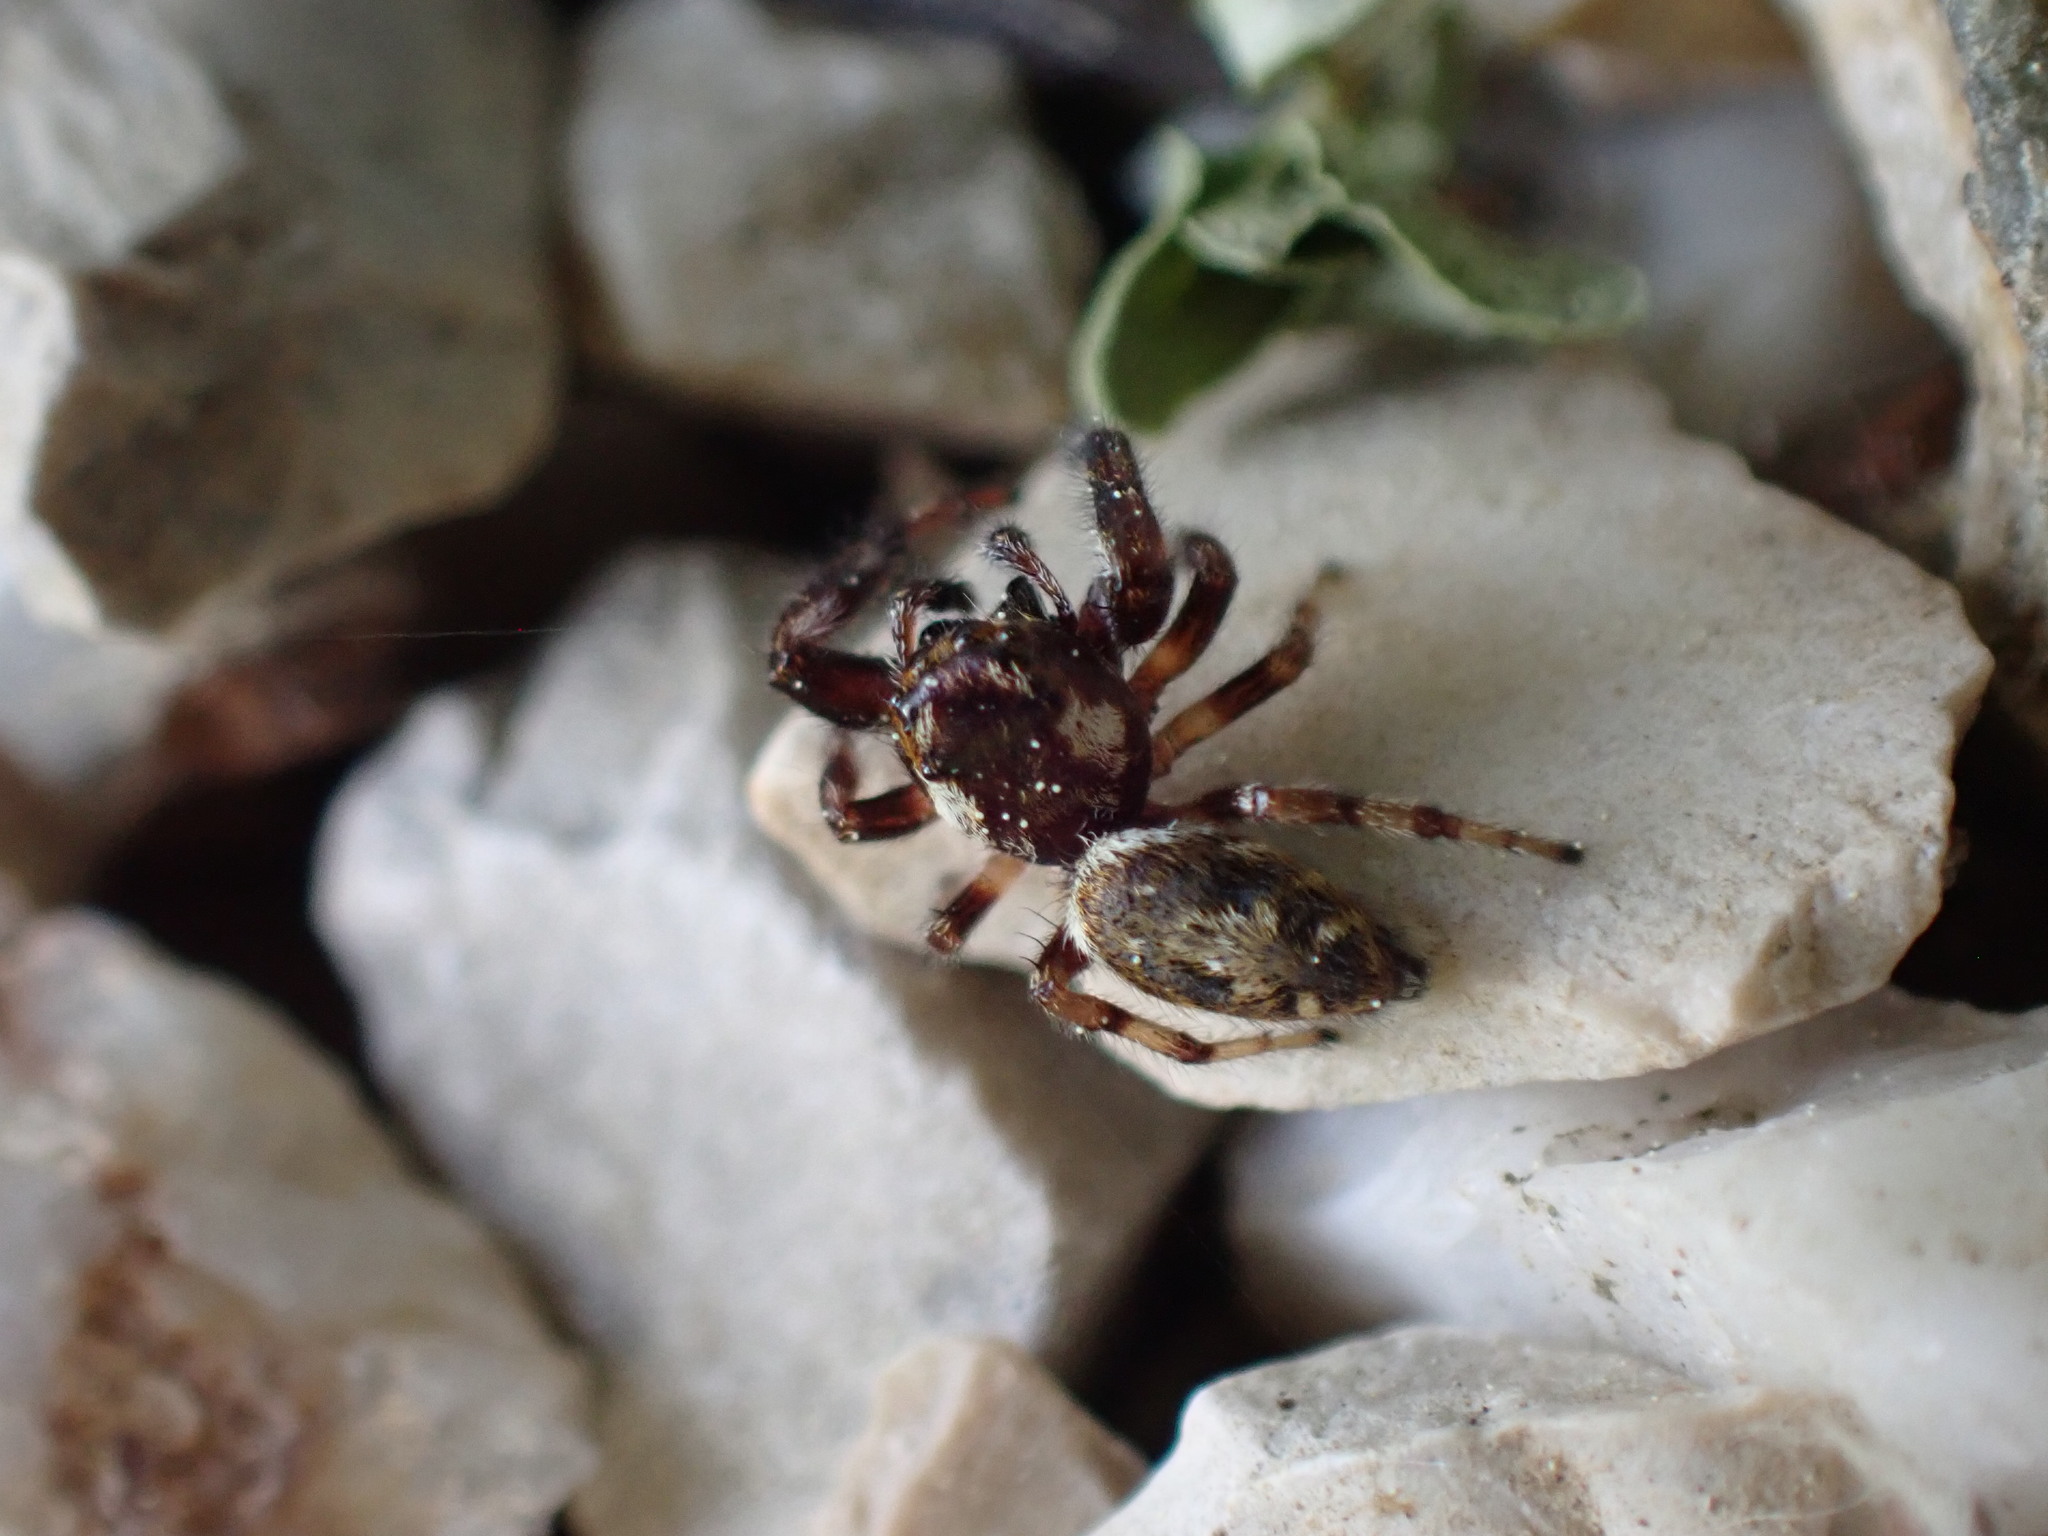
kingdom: Animalia
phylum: Arthropoda
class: Arachnida
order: Araneae
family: Salticidae
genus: Macaroeris
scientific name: Macaroeris nidicolens
